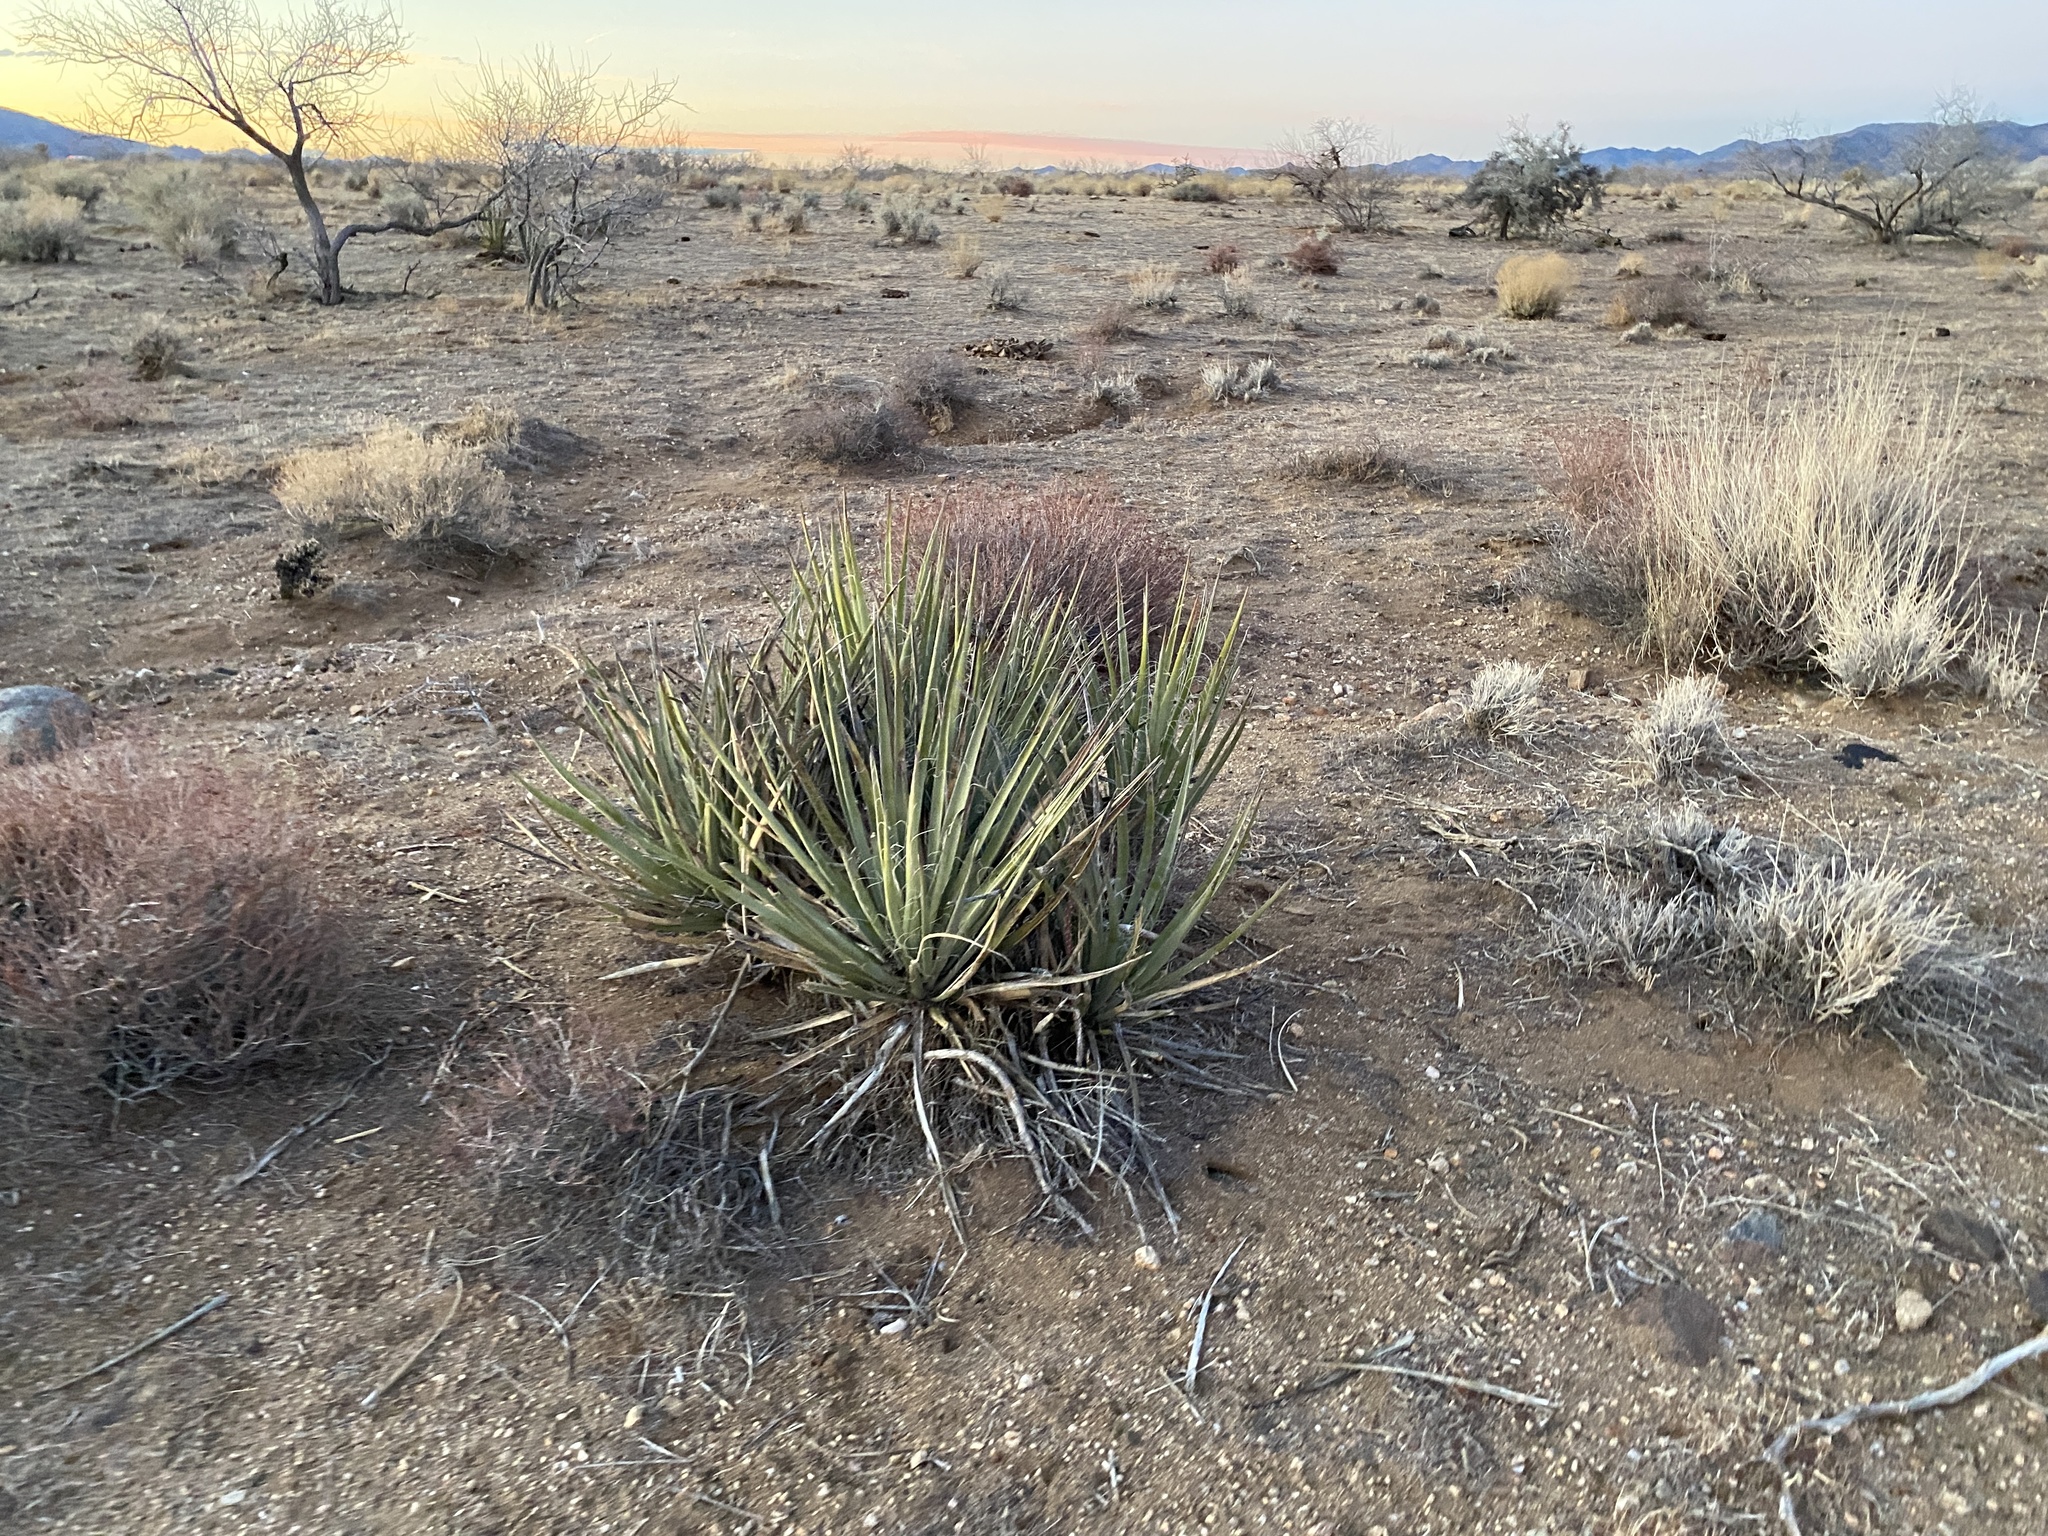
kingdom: Plantae
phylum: Tracheophyta
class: Liliopsida
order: Asparagales
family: Asparagaceae
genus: Yucca
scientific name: Yucca baccata
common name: Banana yucca
